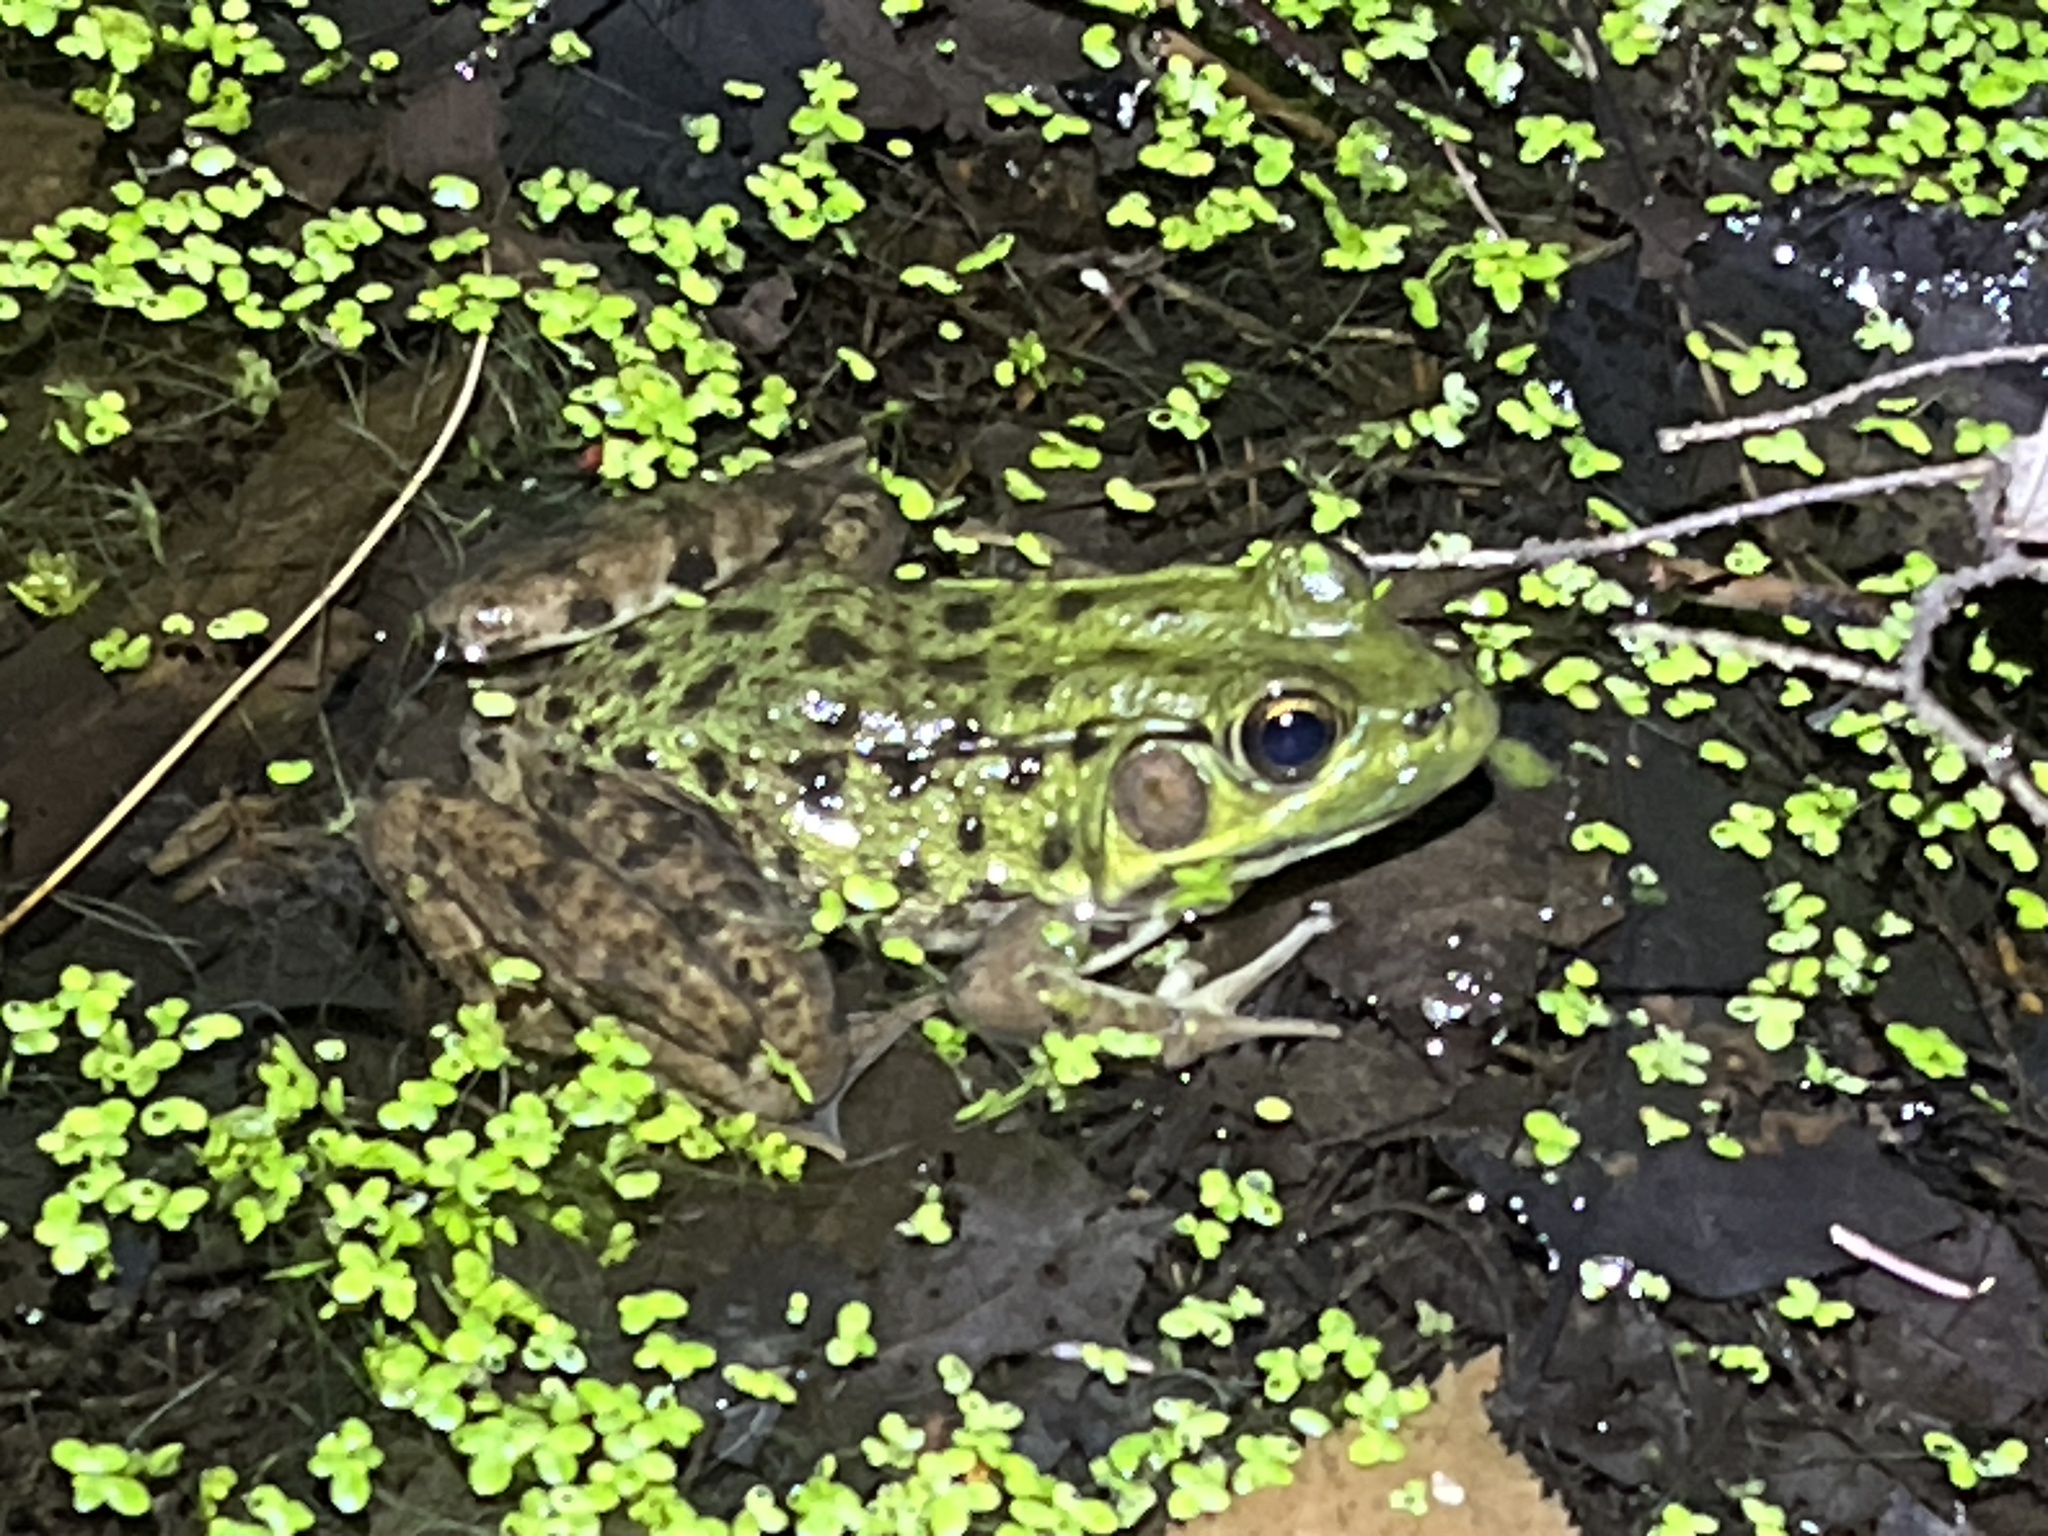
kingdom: Animalia
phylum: Chordata
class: Amphibia
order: Anura
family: Ranidae
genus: Lithobates
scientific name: Lithobates clamitans
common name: Green frog
